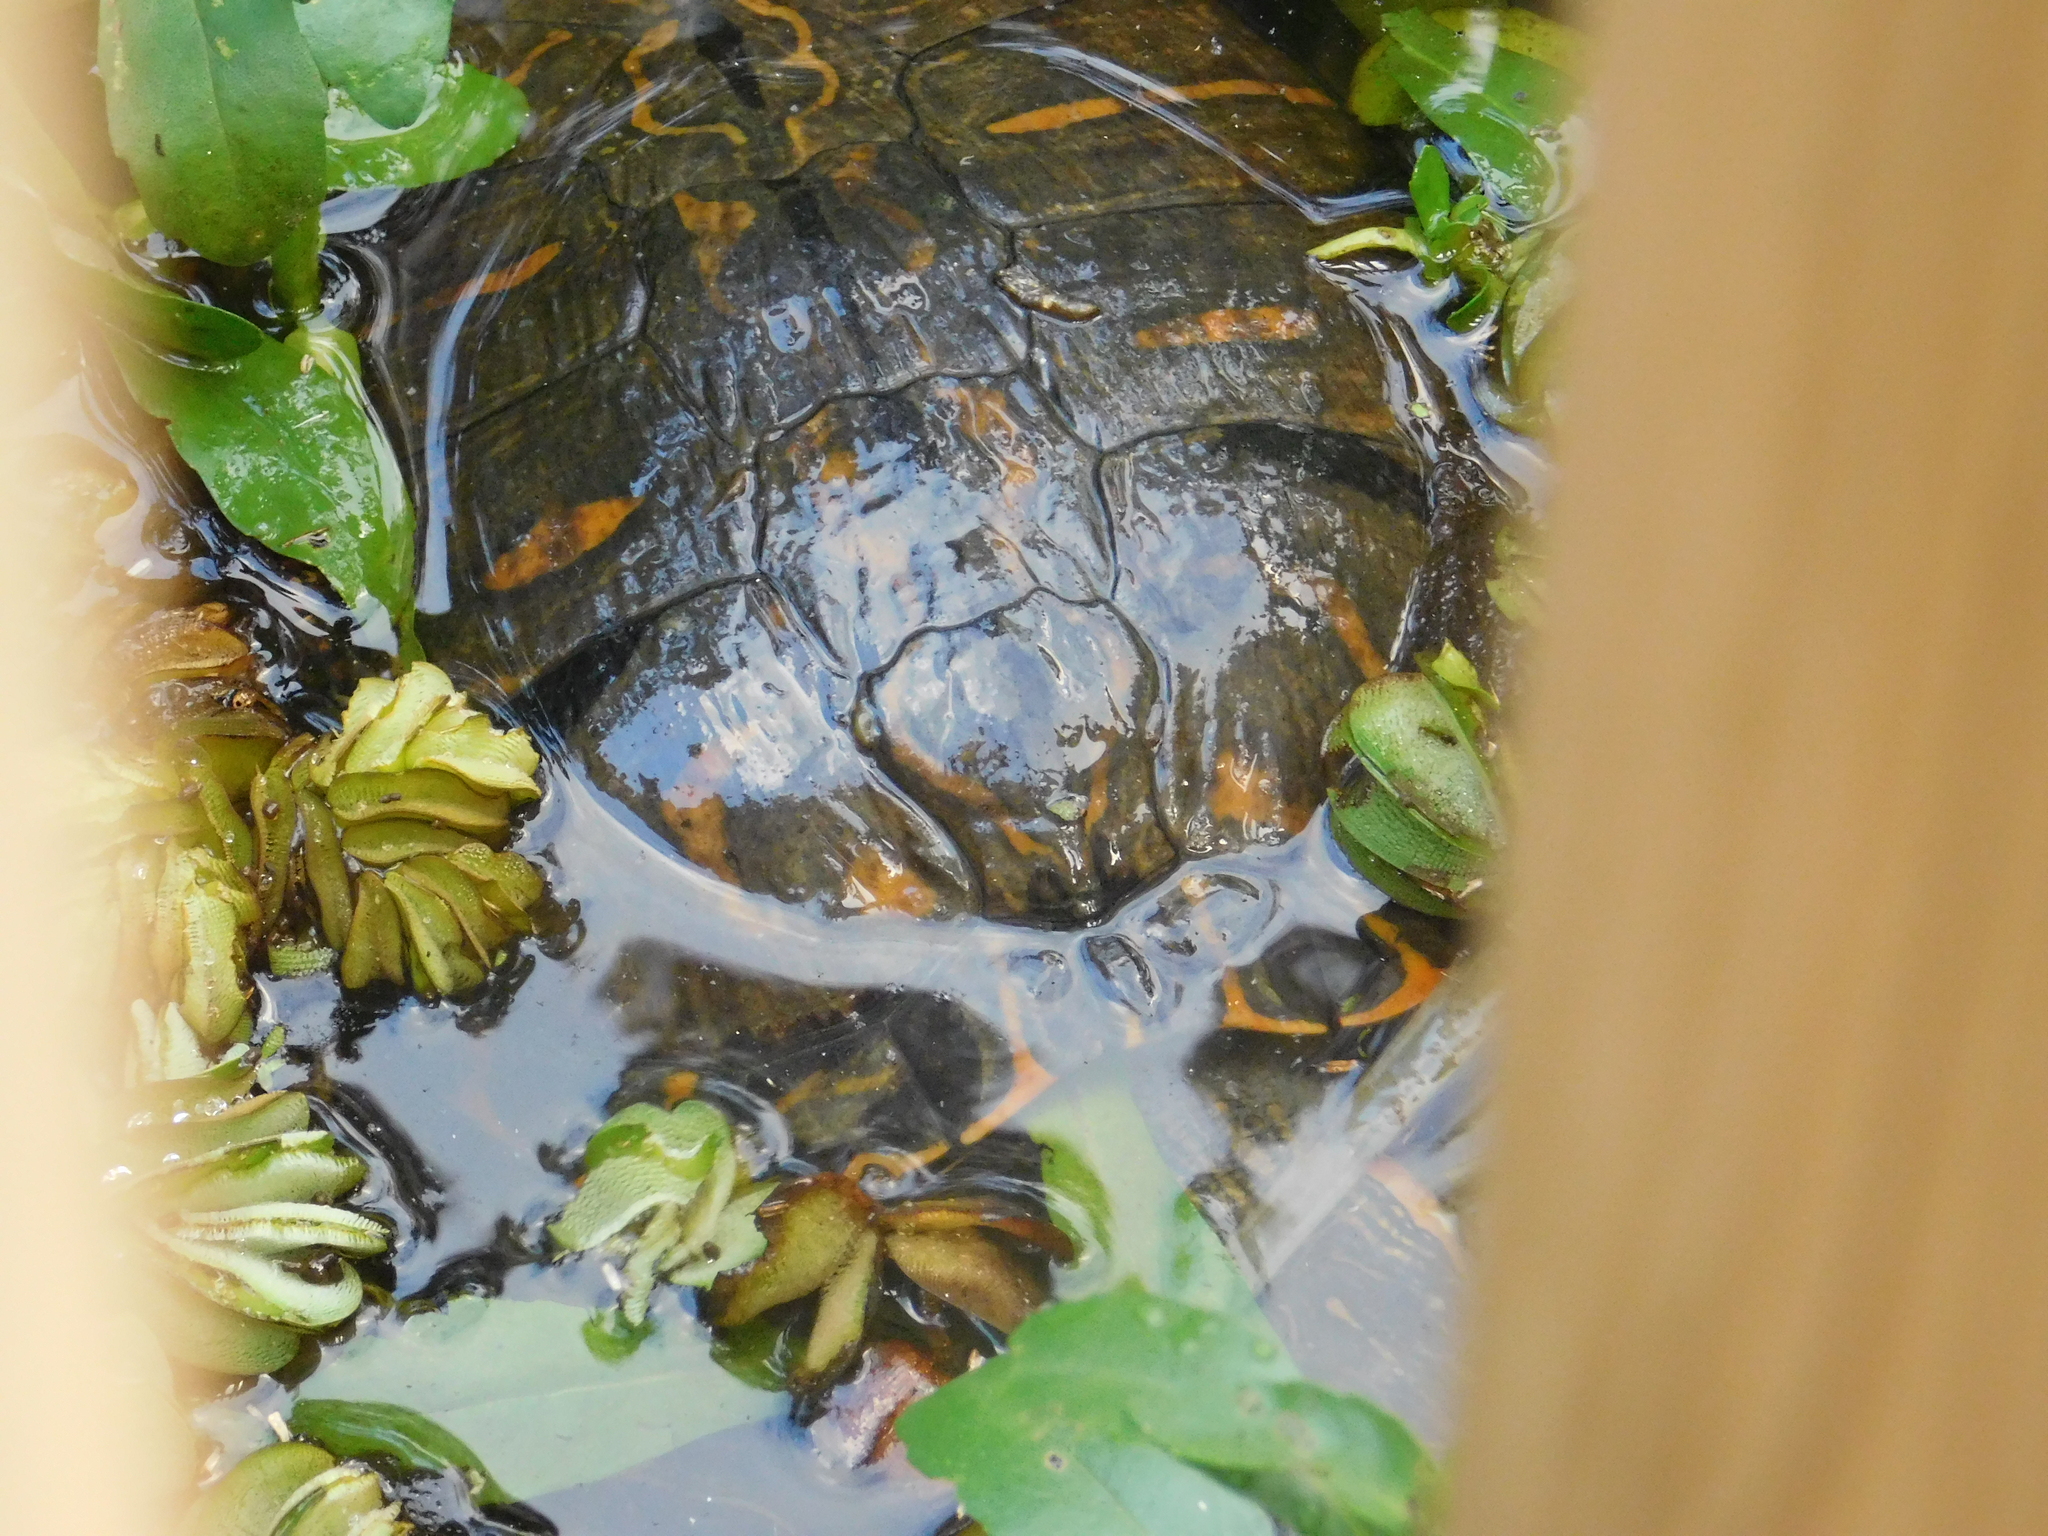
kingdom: Animalia
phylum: Chordata
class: Testudines
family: Emydidae
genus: Trachemys
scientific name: Trachemys dorbigni
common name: Black-bellied slider
